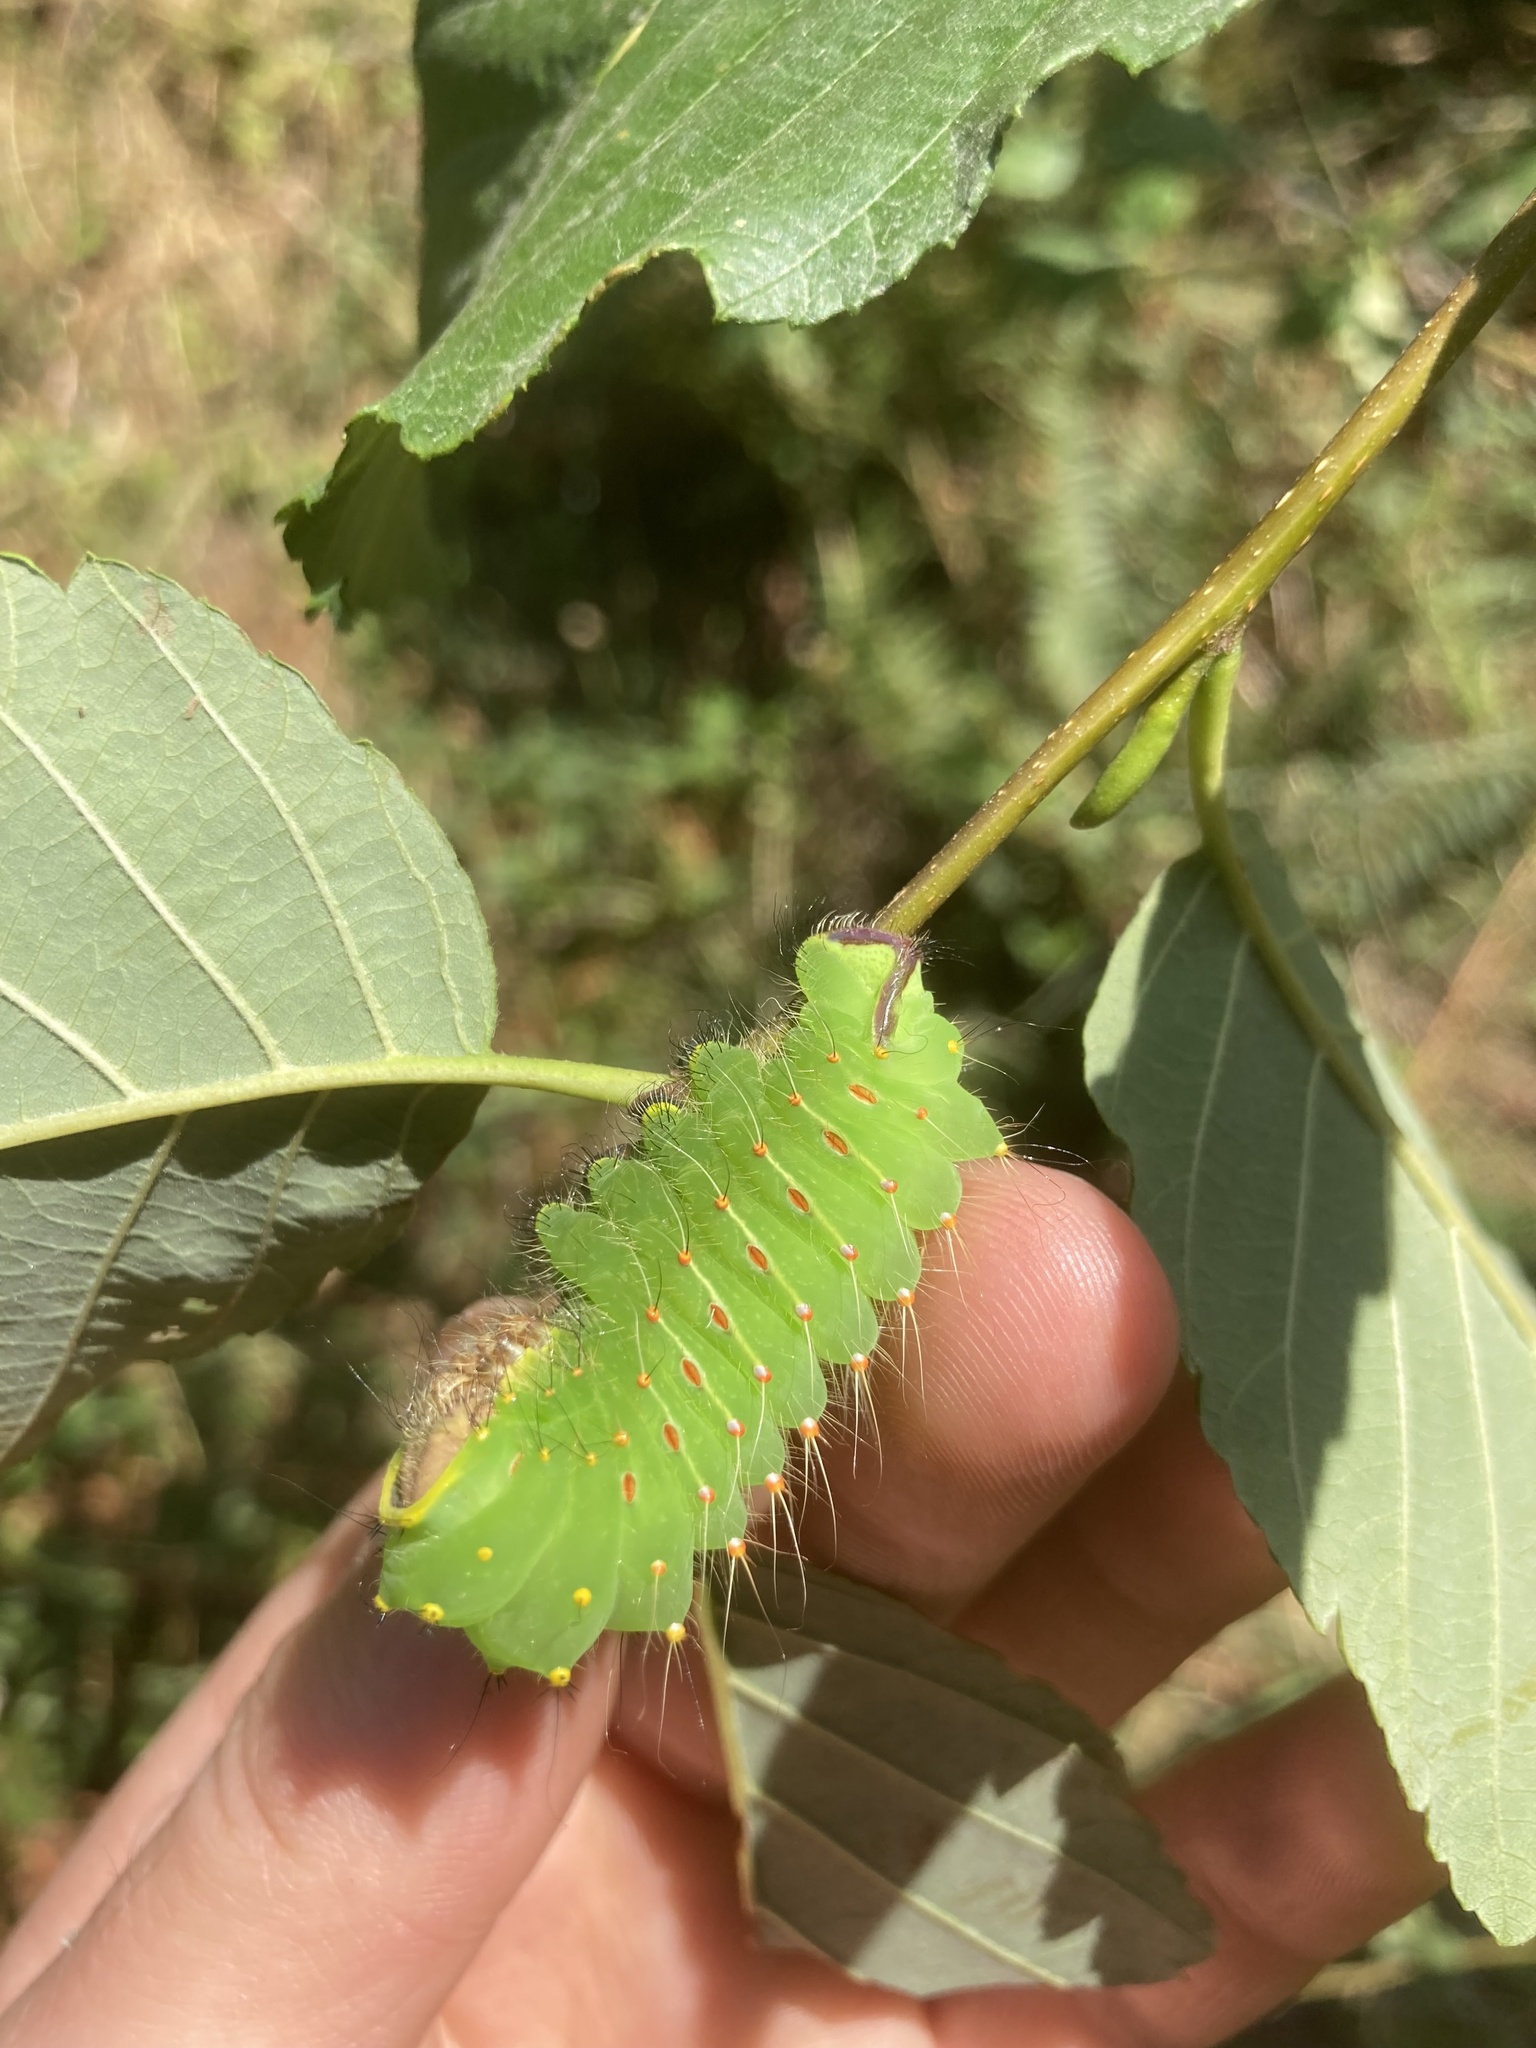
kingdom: Animalia
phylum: Arthropoda
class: Insecta
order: Lepidoptera
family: Saturniidae
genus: Antheraea
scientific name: Antheraea polyphemus
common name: Polyphemus moth
